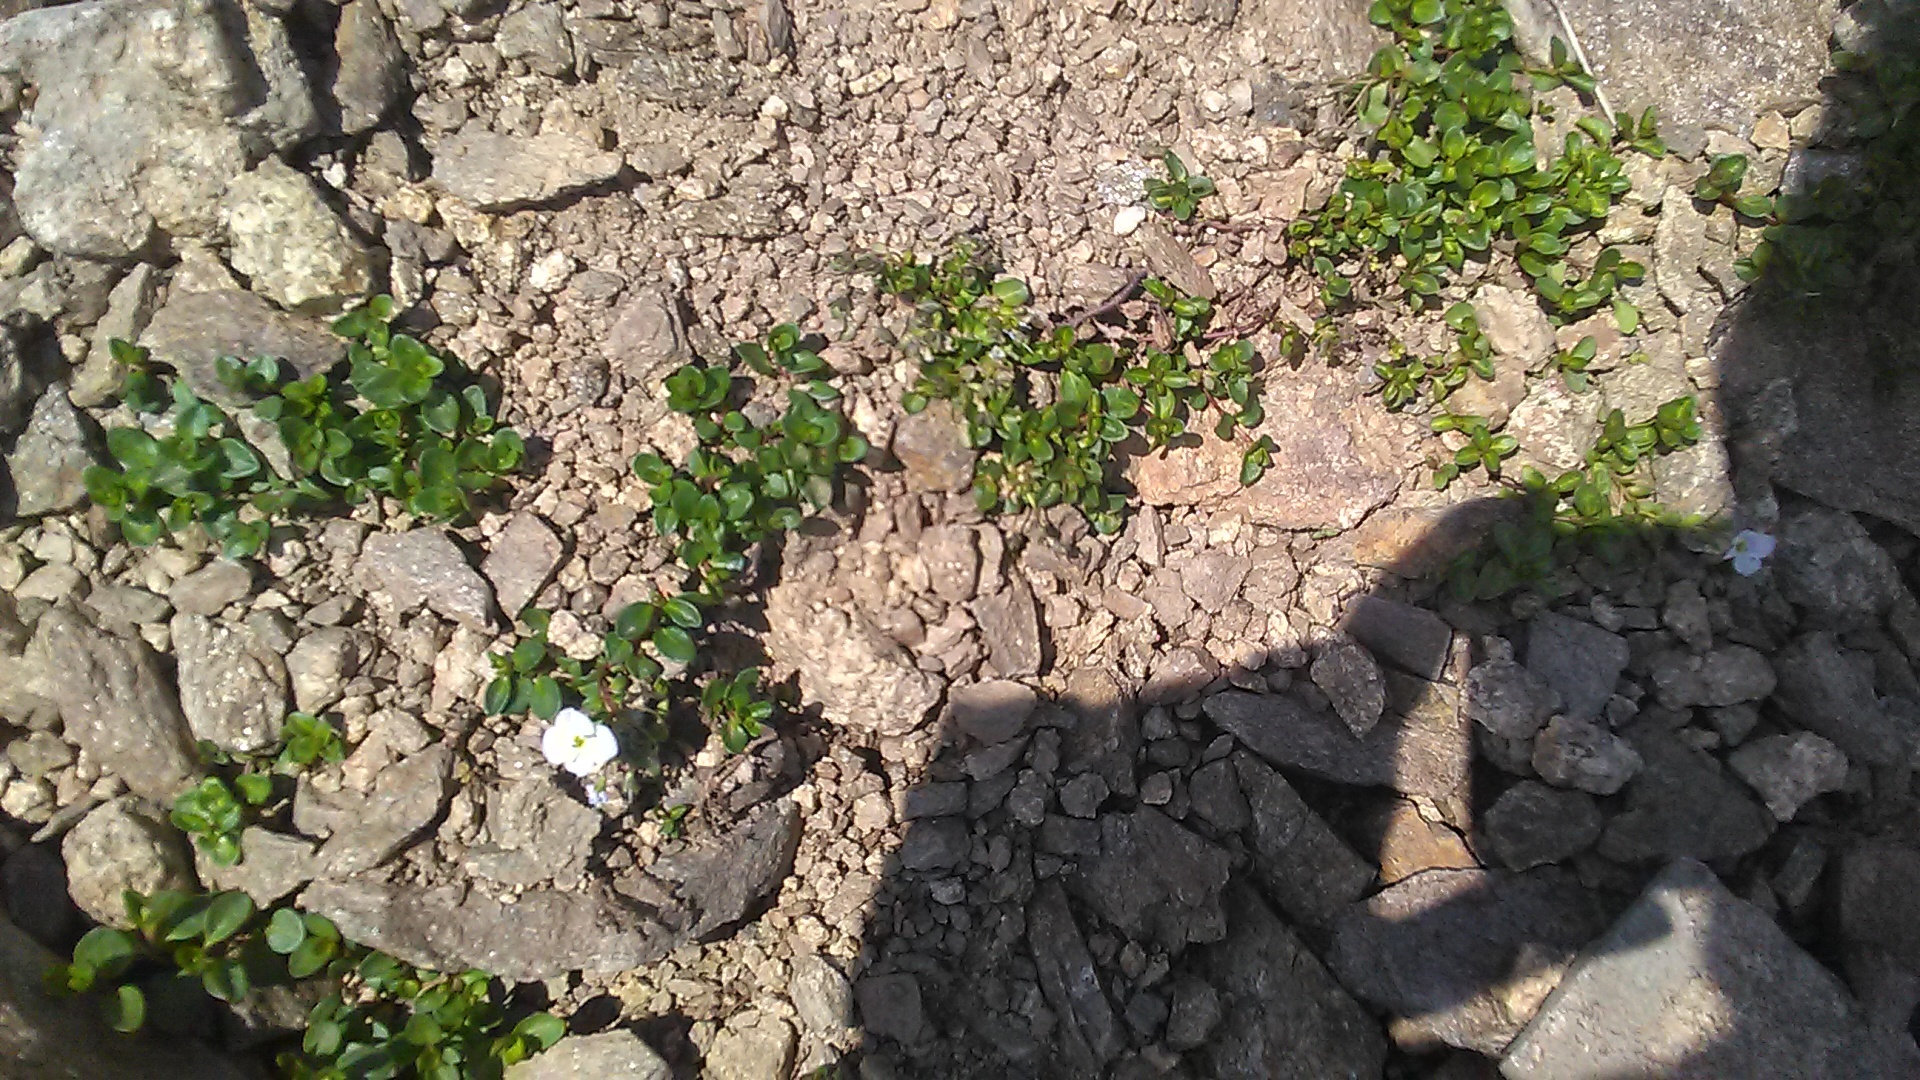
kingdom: Plantae
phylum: Tracheophyta
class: Magnoliopsida
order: Lamiales
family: Plantaginaceae
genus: Veronica
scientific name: Veronica telephiifolia
